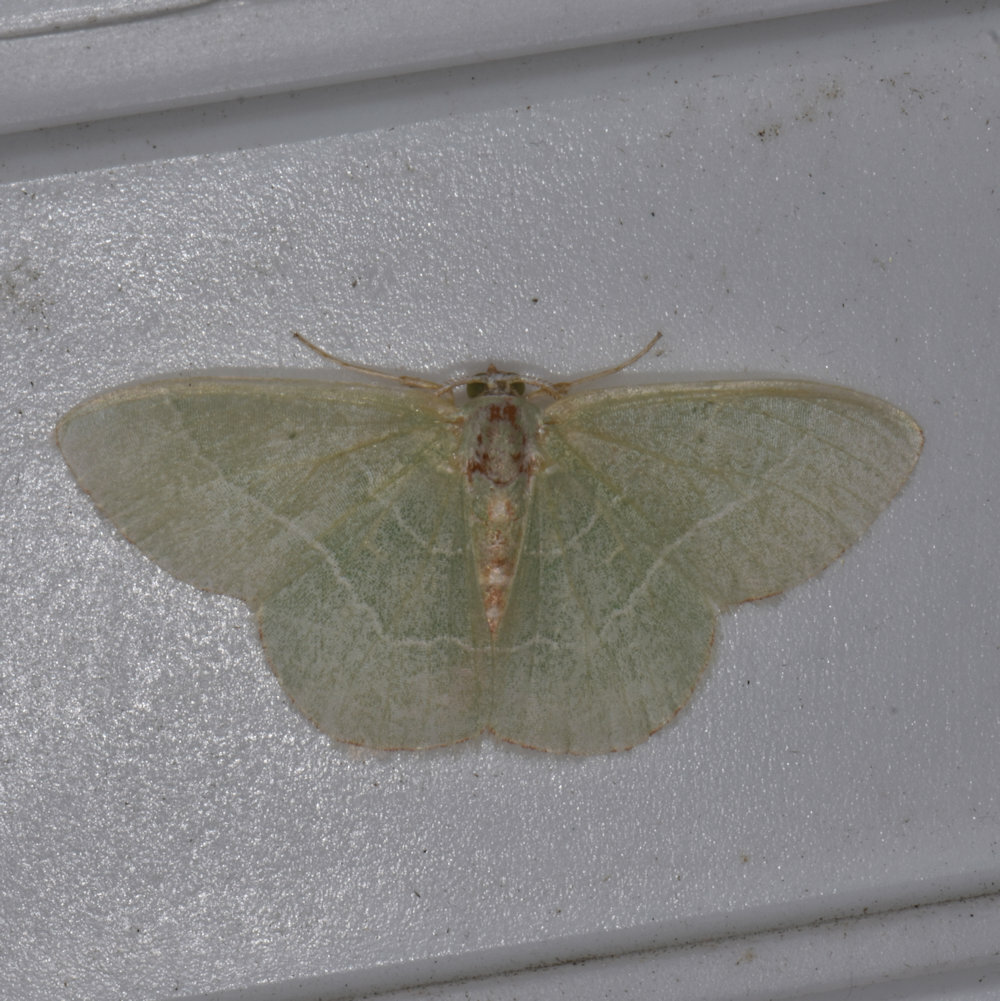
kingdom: Animalia
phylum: Arthropoda
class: Insecta
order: Lepidoptera
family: Geometridae
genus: Nemoria
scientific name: Nemoria bistriaria
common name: Red-fringed emerald
